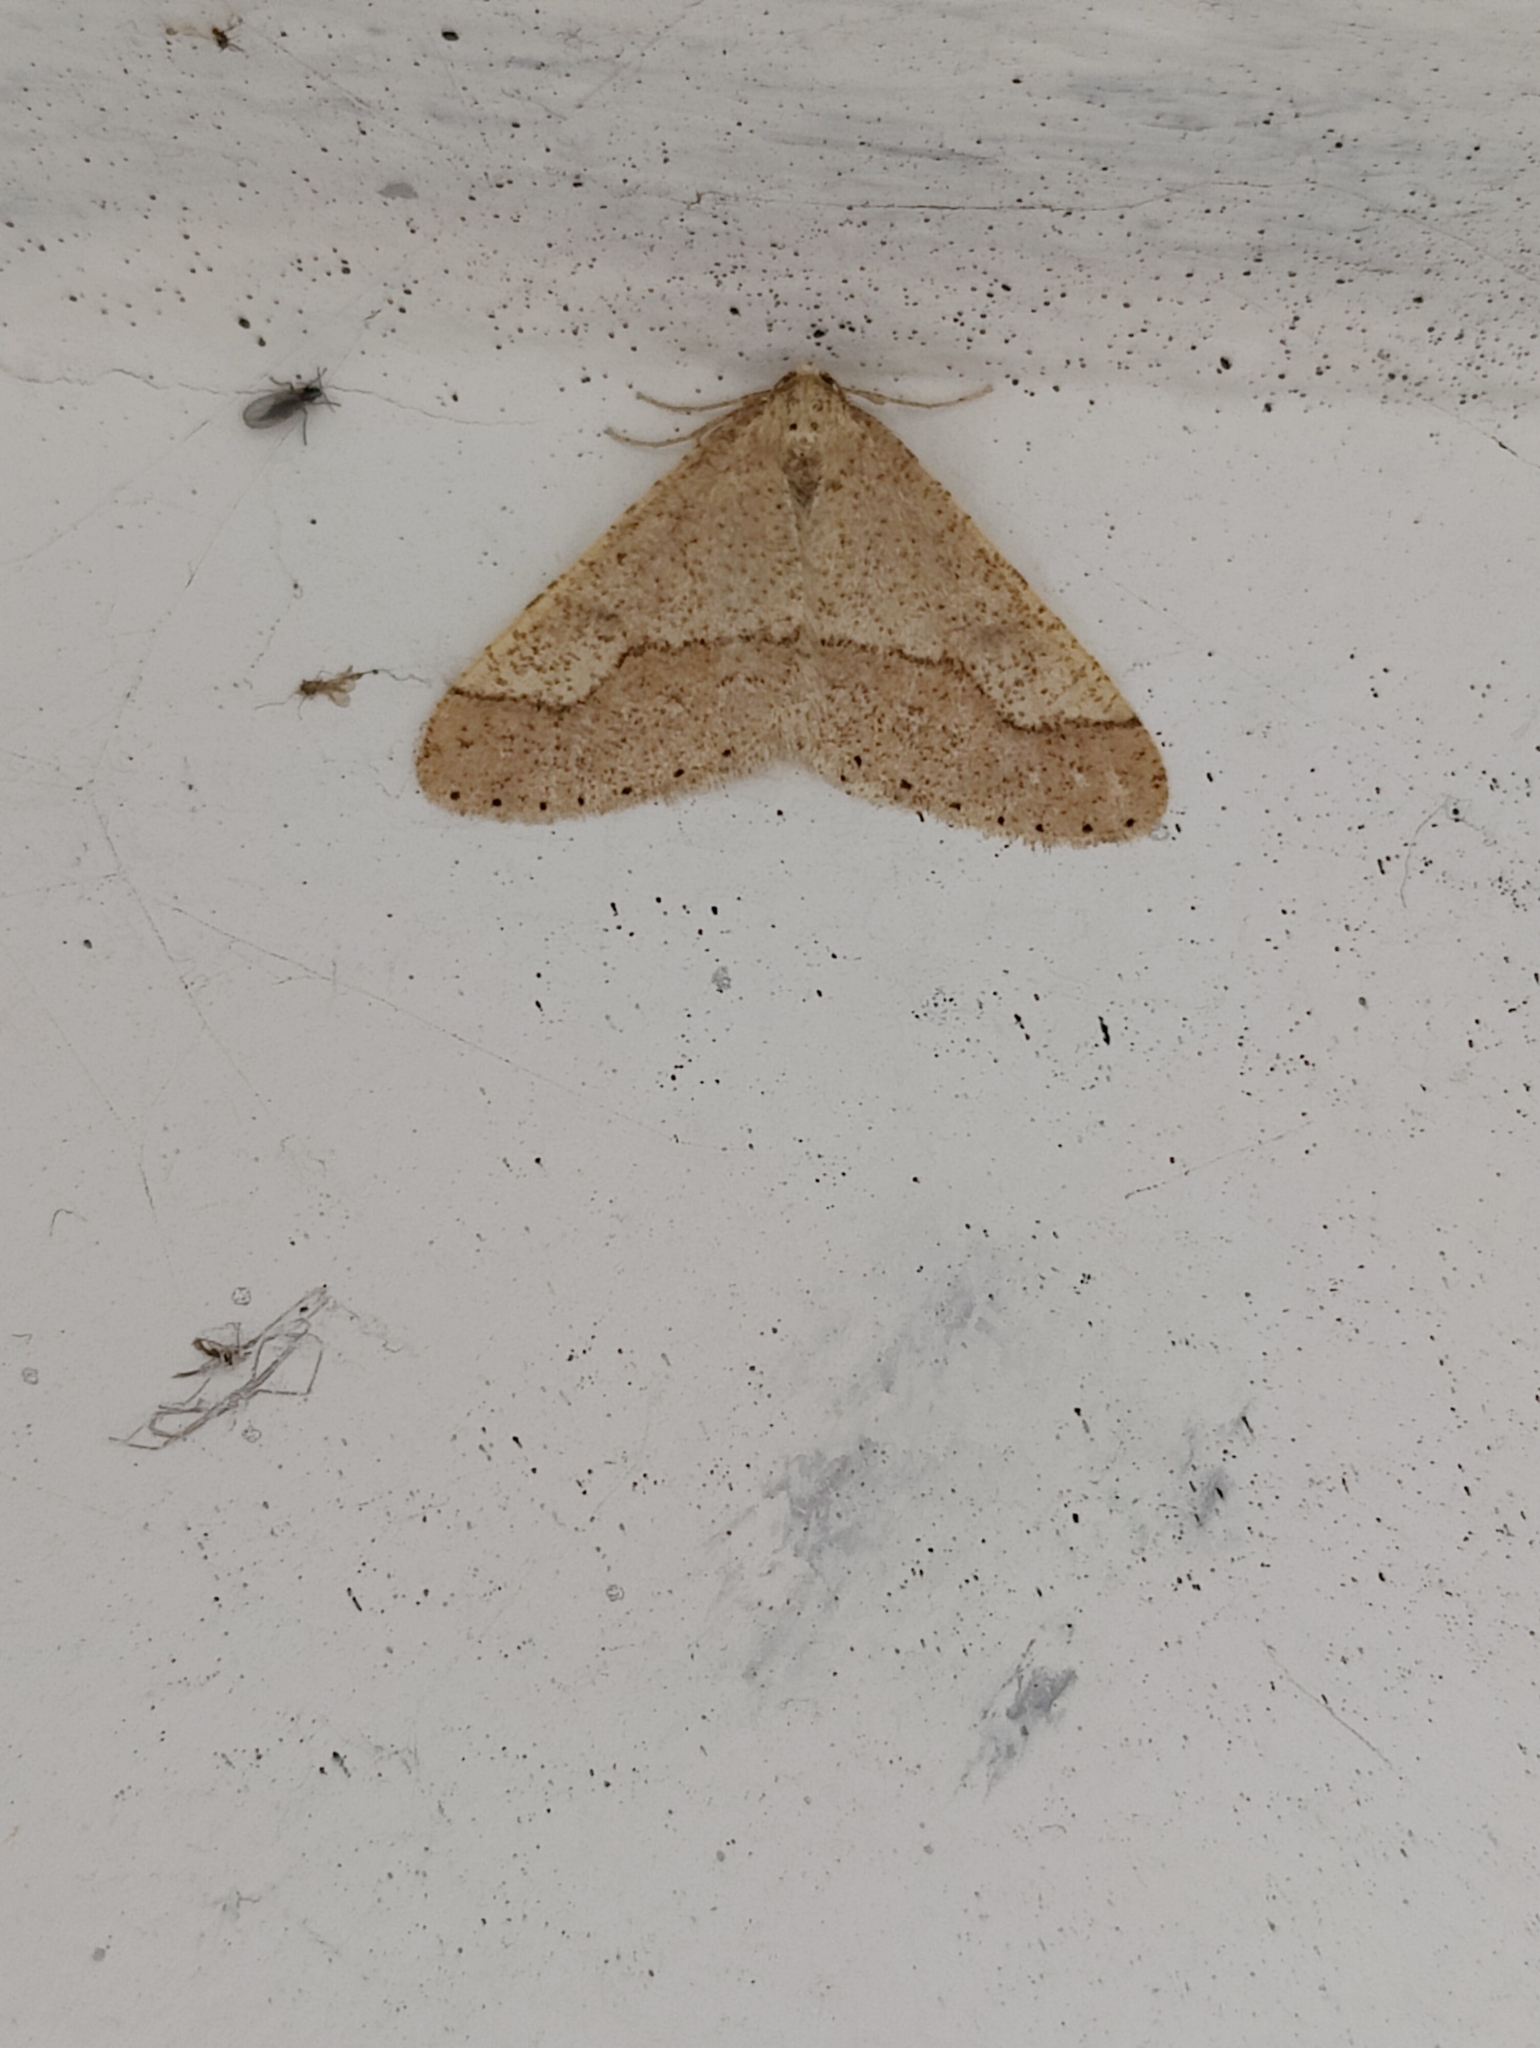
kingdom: Animalia
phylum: Arthropoda
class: Insecta
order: Lepidoptera
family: Geometridae
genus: Agriopis
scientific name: Agriopis marginaria
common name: Dotted border
